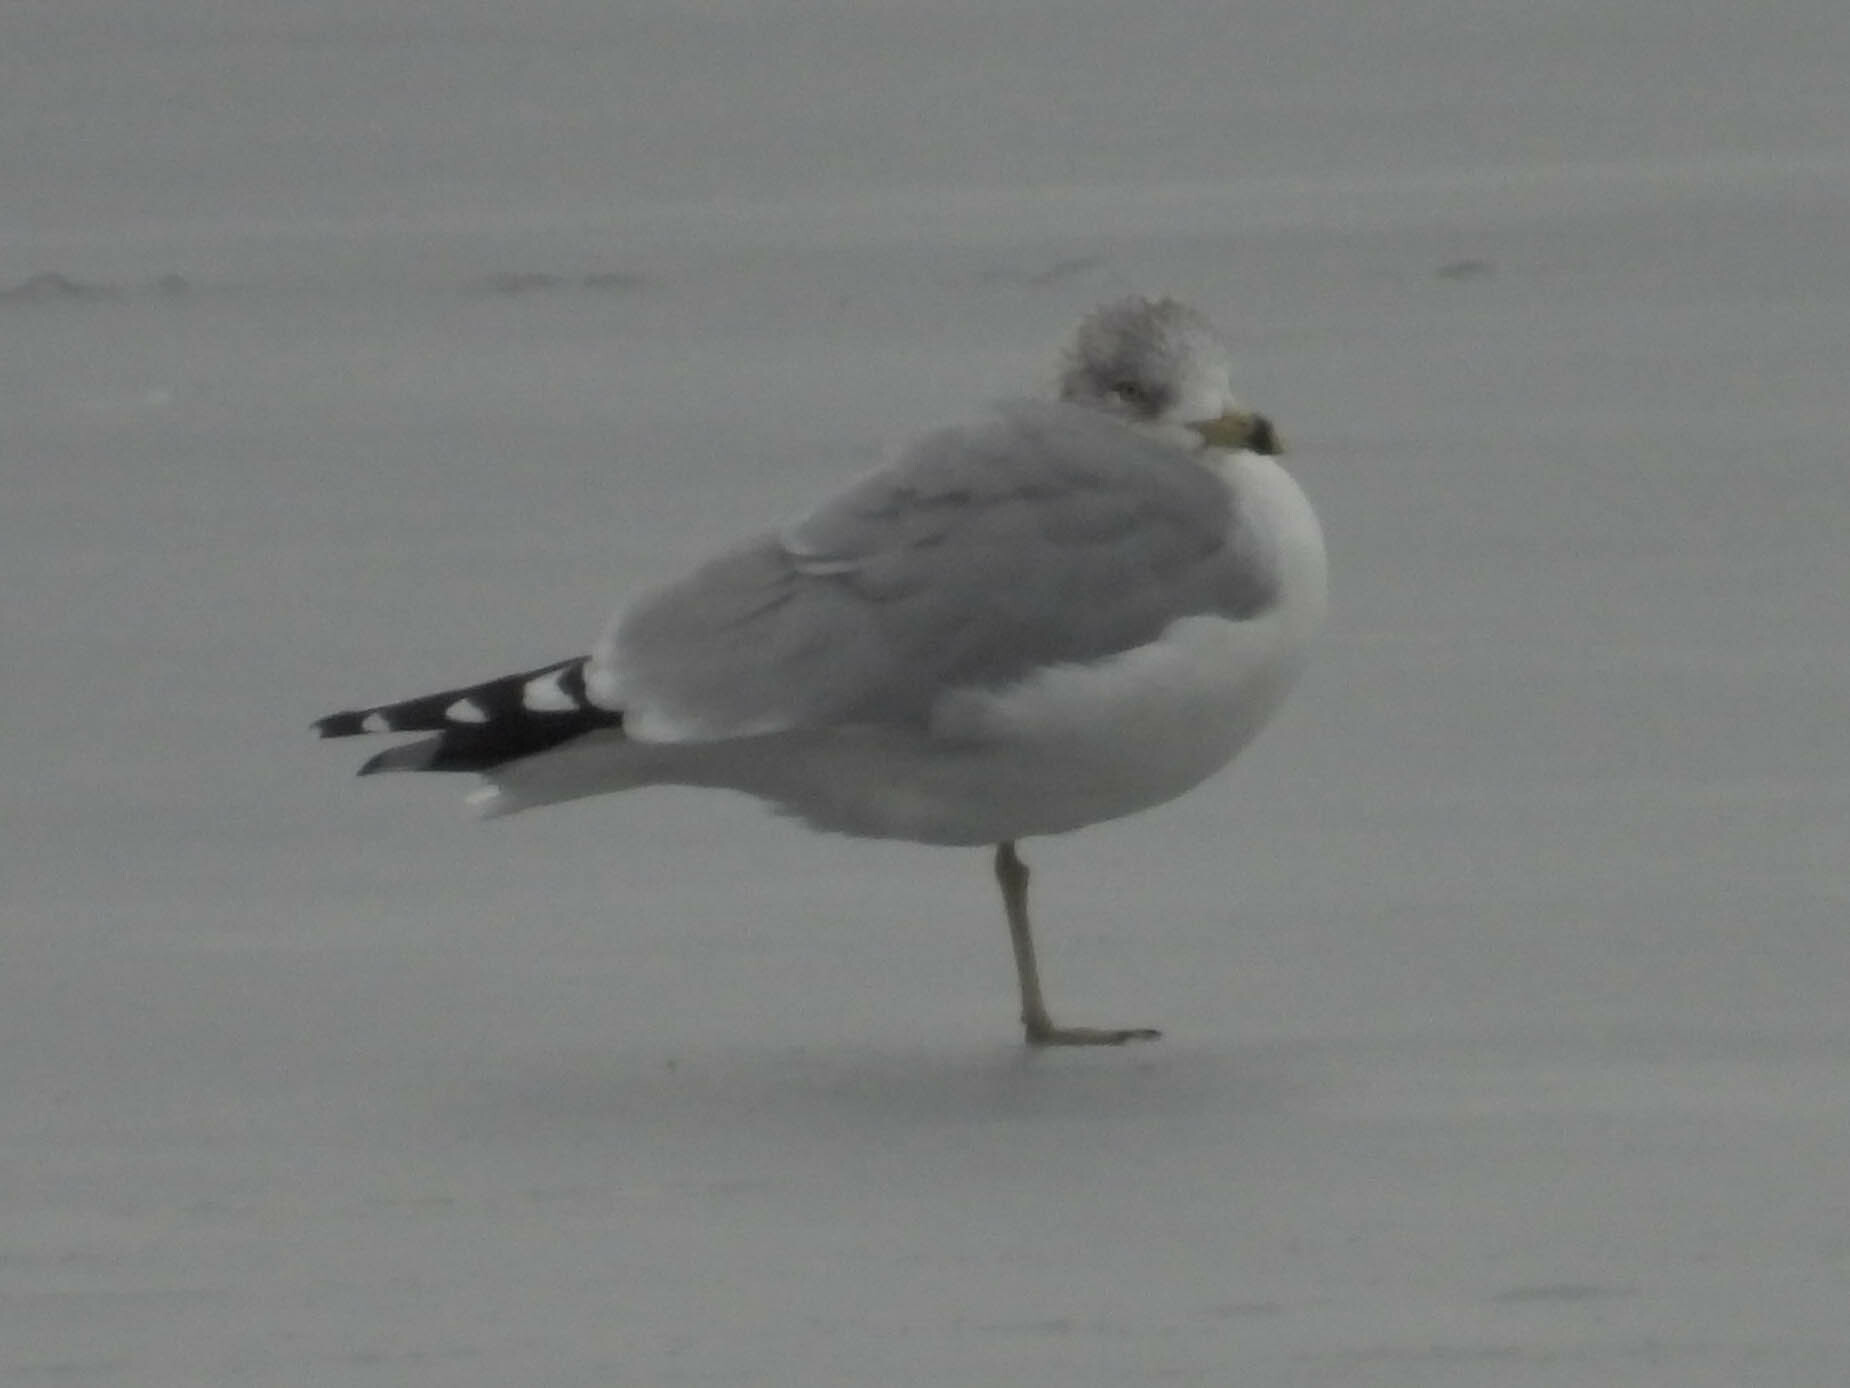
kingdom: Animalia
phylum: Chordata
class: Aves
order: Charadriiformes
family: Laridae
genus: Larus
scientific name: Larus delawarensis
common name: Ring-billed gull
